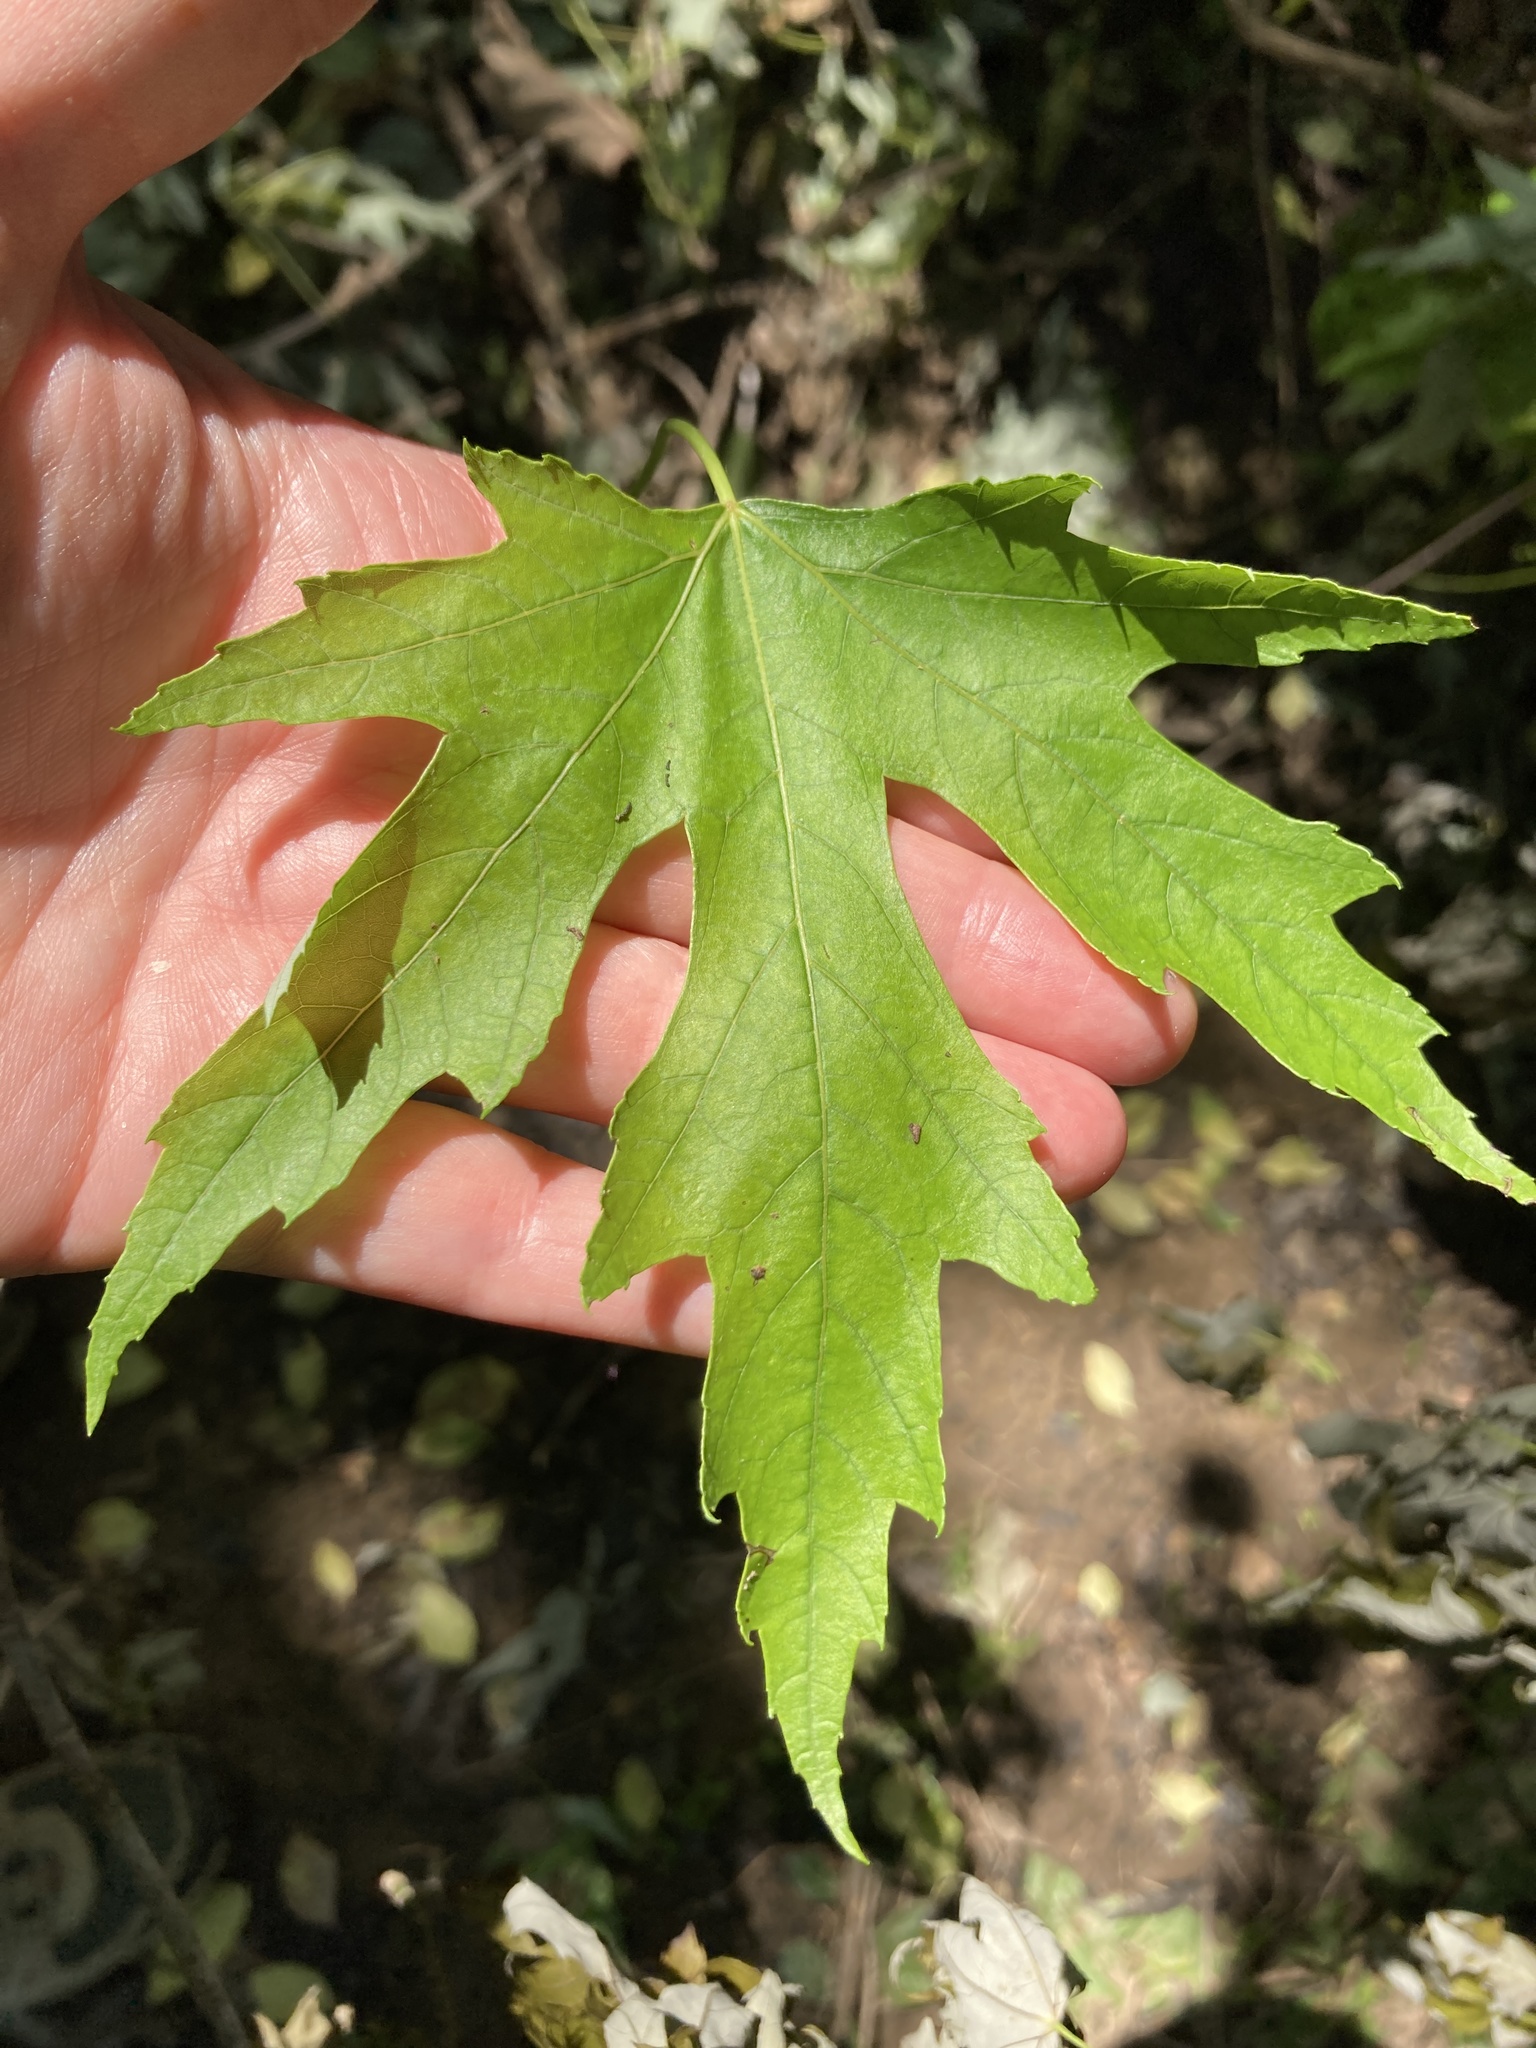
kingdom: Plantae
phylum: Tracheophyta
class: Magnoliopsida
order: Sapindales
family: Sapindaceae
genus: Acer
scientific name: Acer saccharinum
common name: Silver maple
